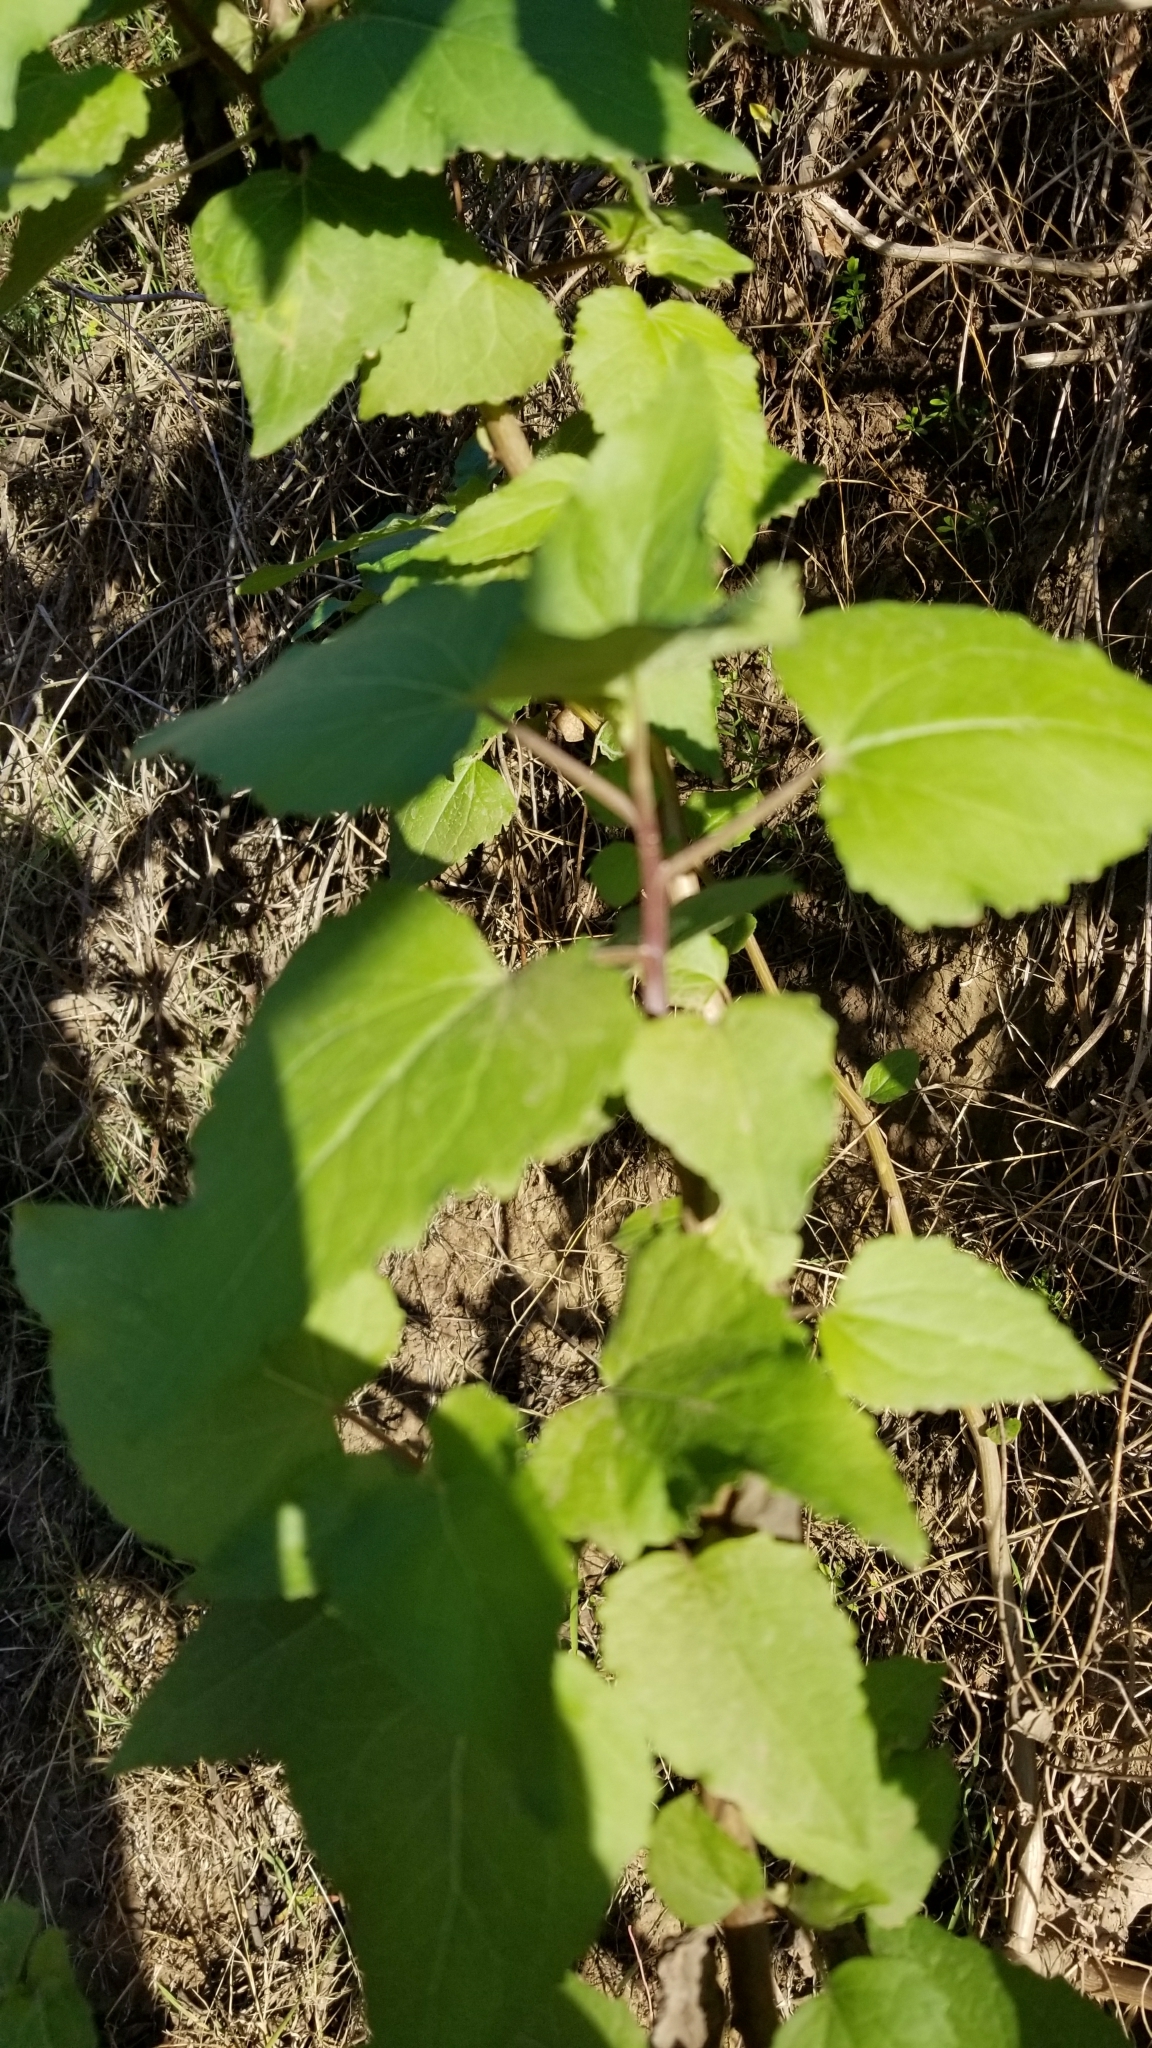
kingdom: Plantae
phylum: Tracheophyta
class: Magnoliopsida
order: Asterales
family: Asteraceae
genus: Venegasia
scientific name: Venegasia carpesioides
